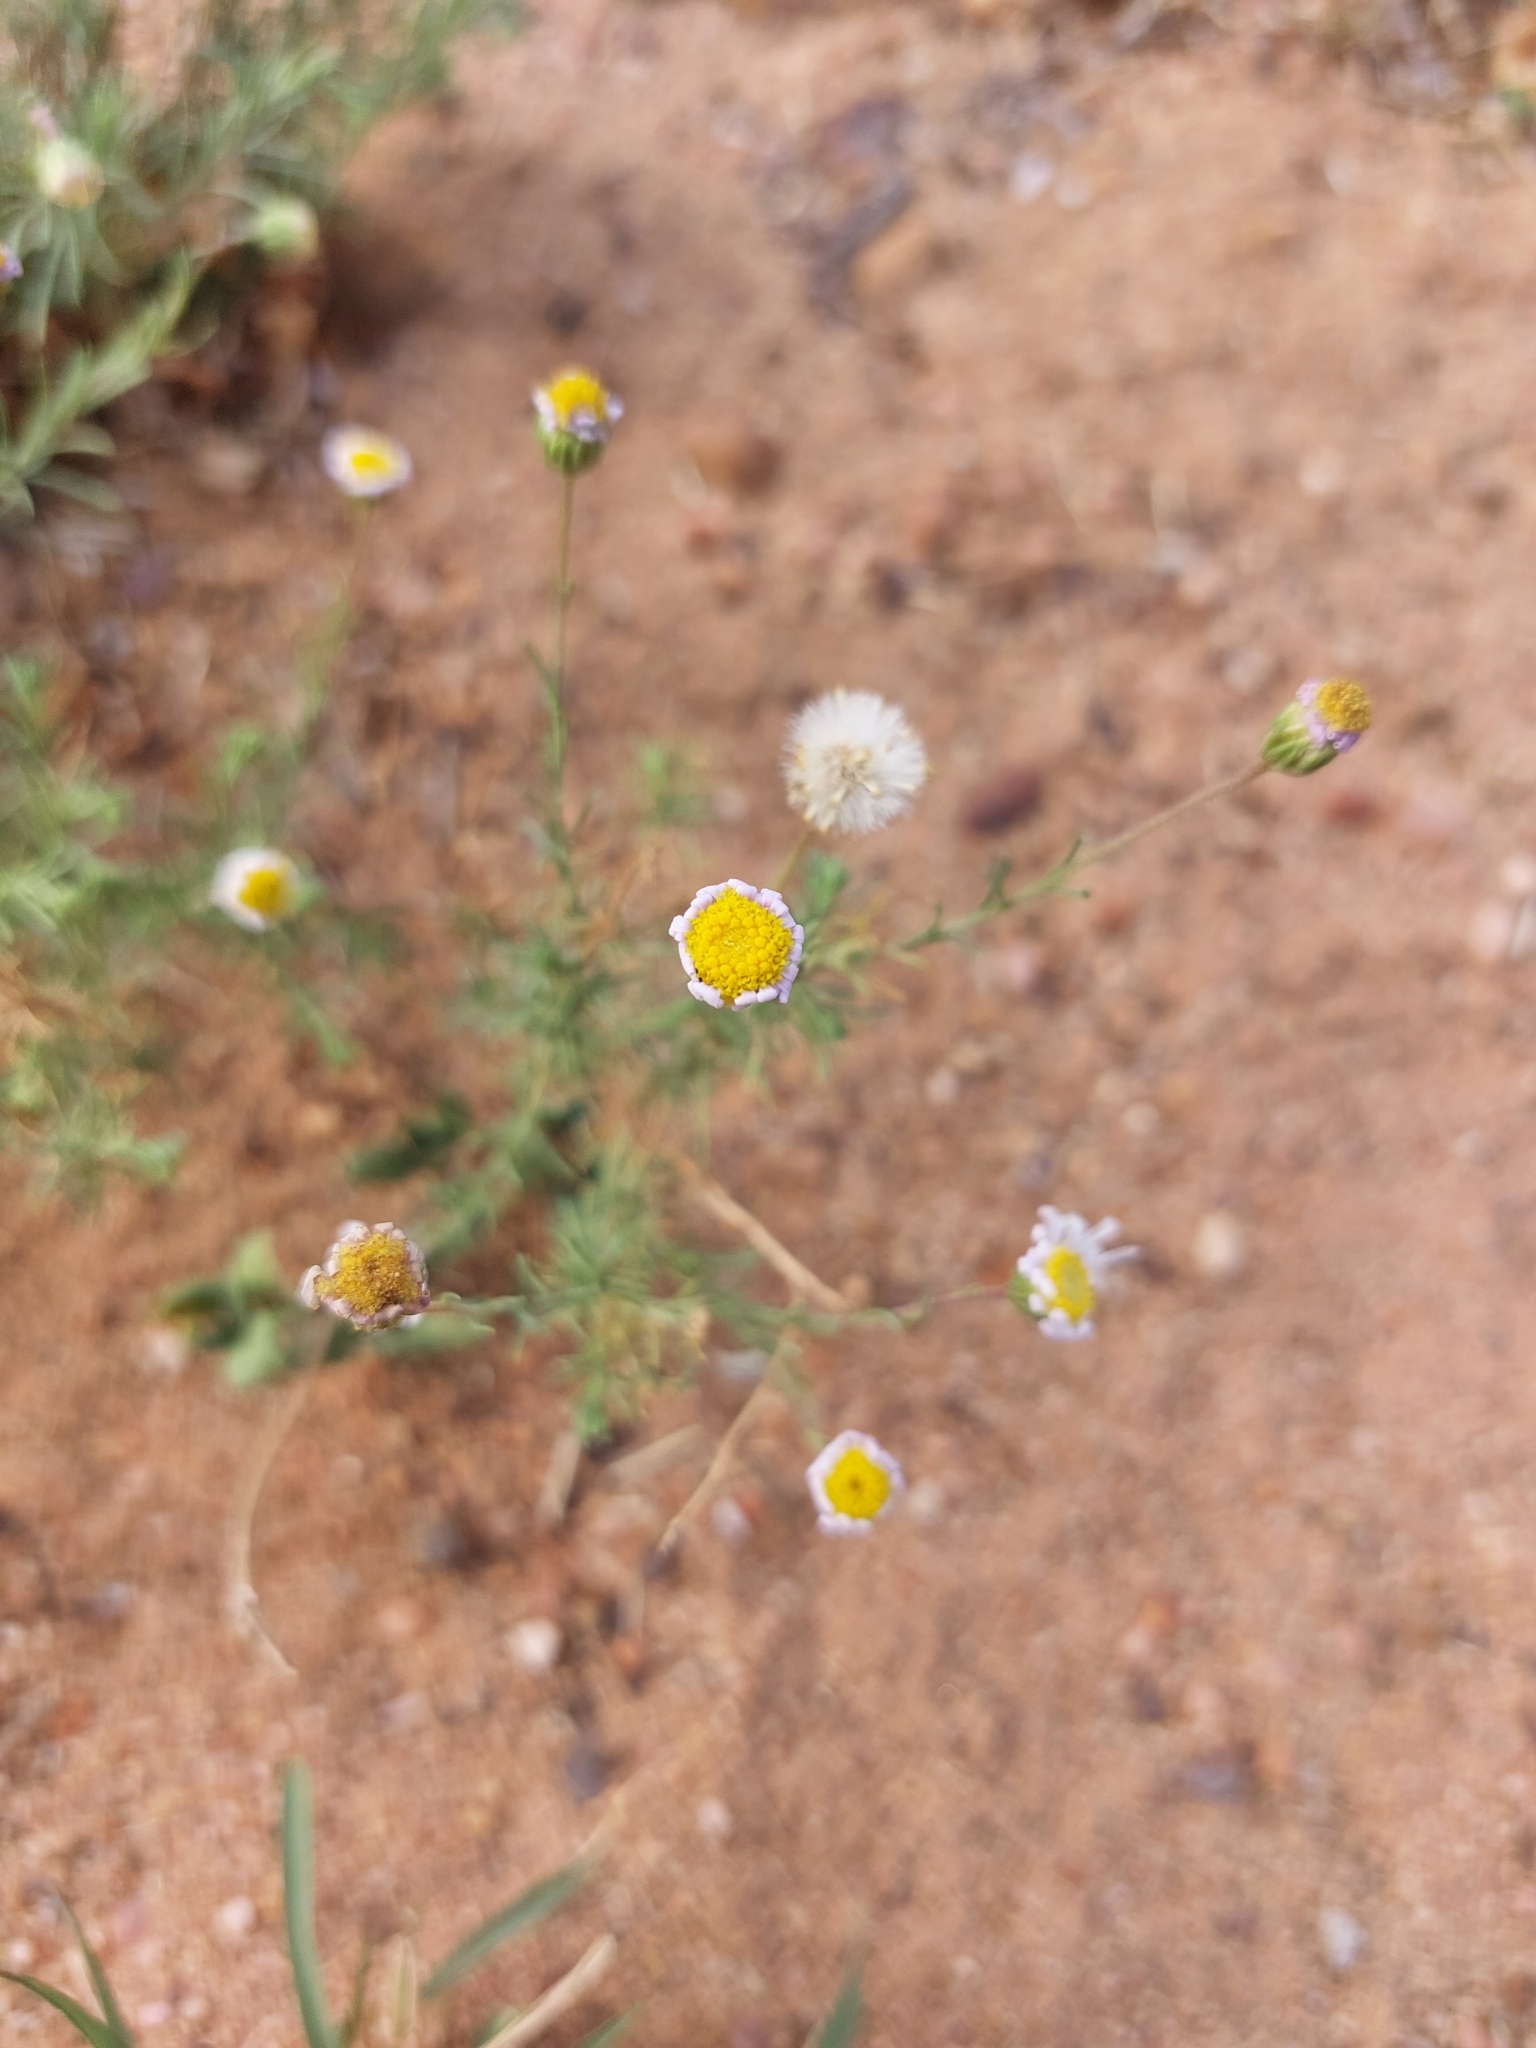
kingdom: Plantae
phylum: Tracheophyta
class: Magnoliopsida
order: Asterales
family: Asteraceae
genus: Felicia
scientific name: Felicia muricata
